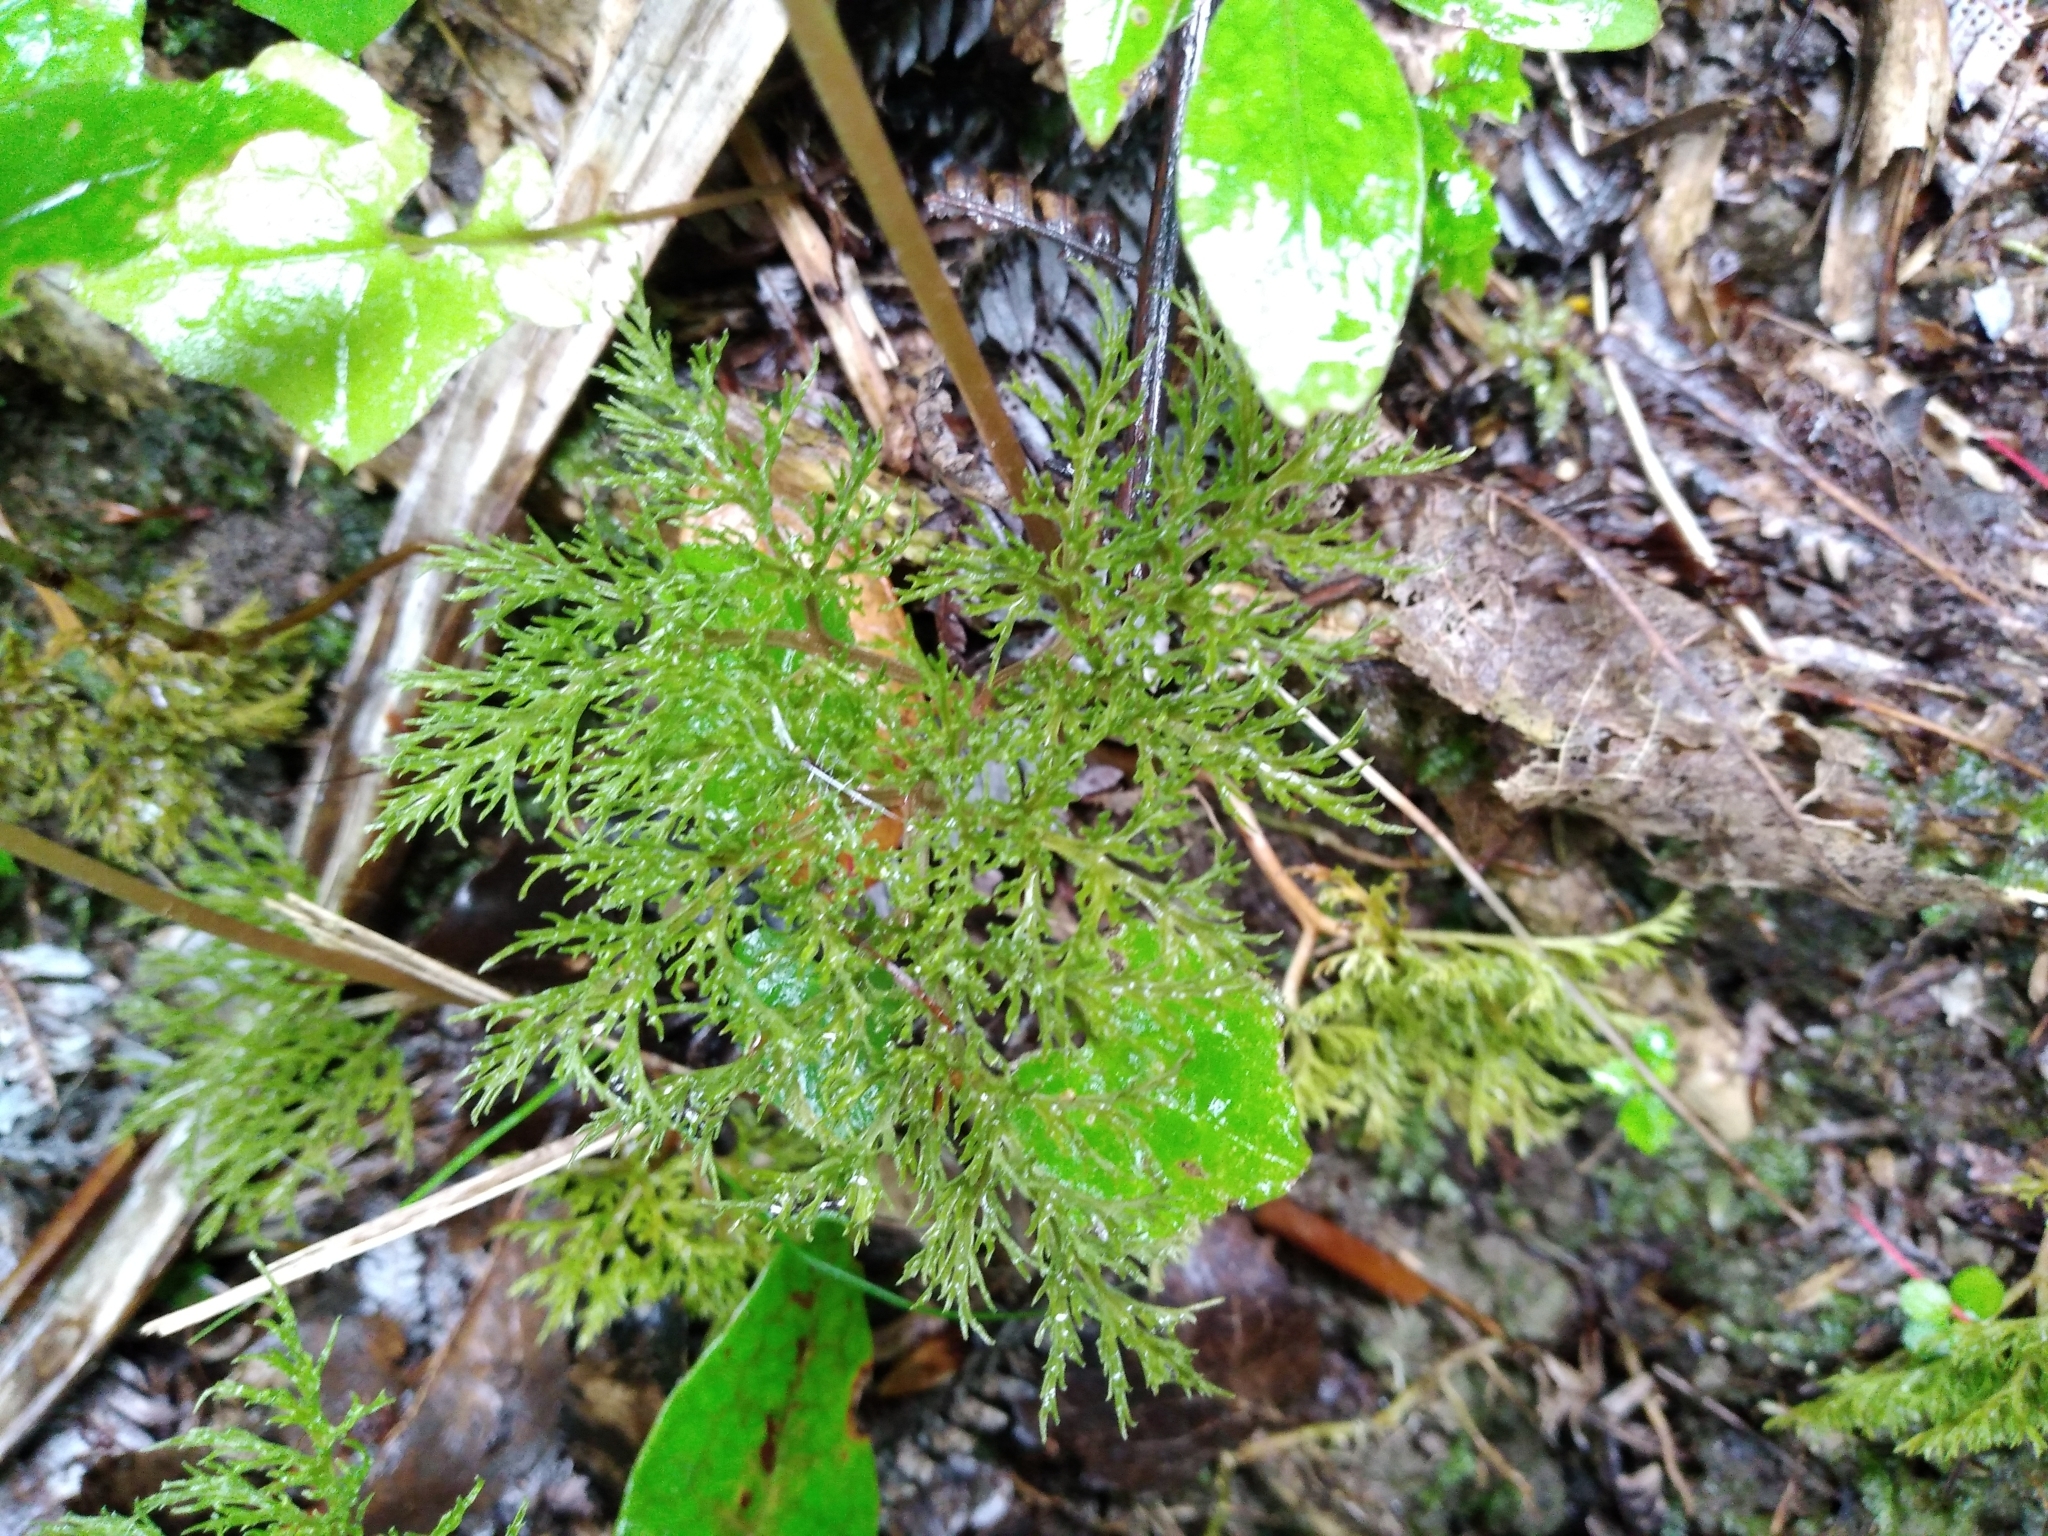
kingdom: Plantae
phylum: Tracheophyta
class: Polypodiopsida
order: Ophioglossales
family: Ophioglossaceae
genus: Sceptridium
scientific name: Sceptridium biforme
